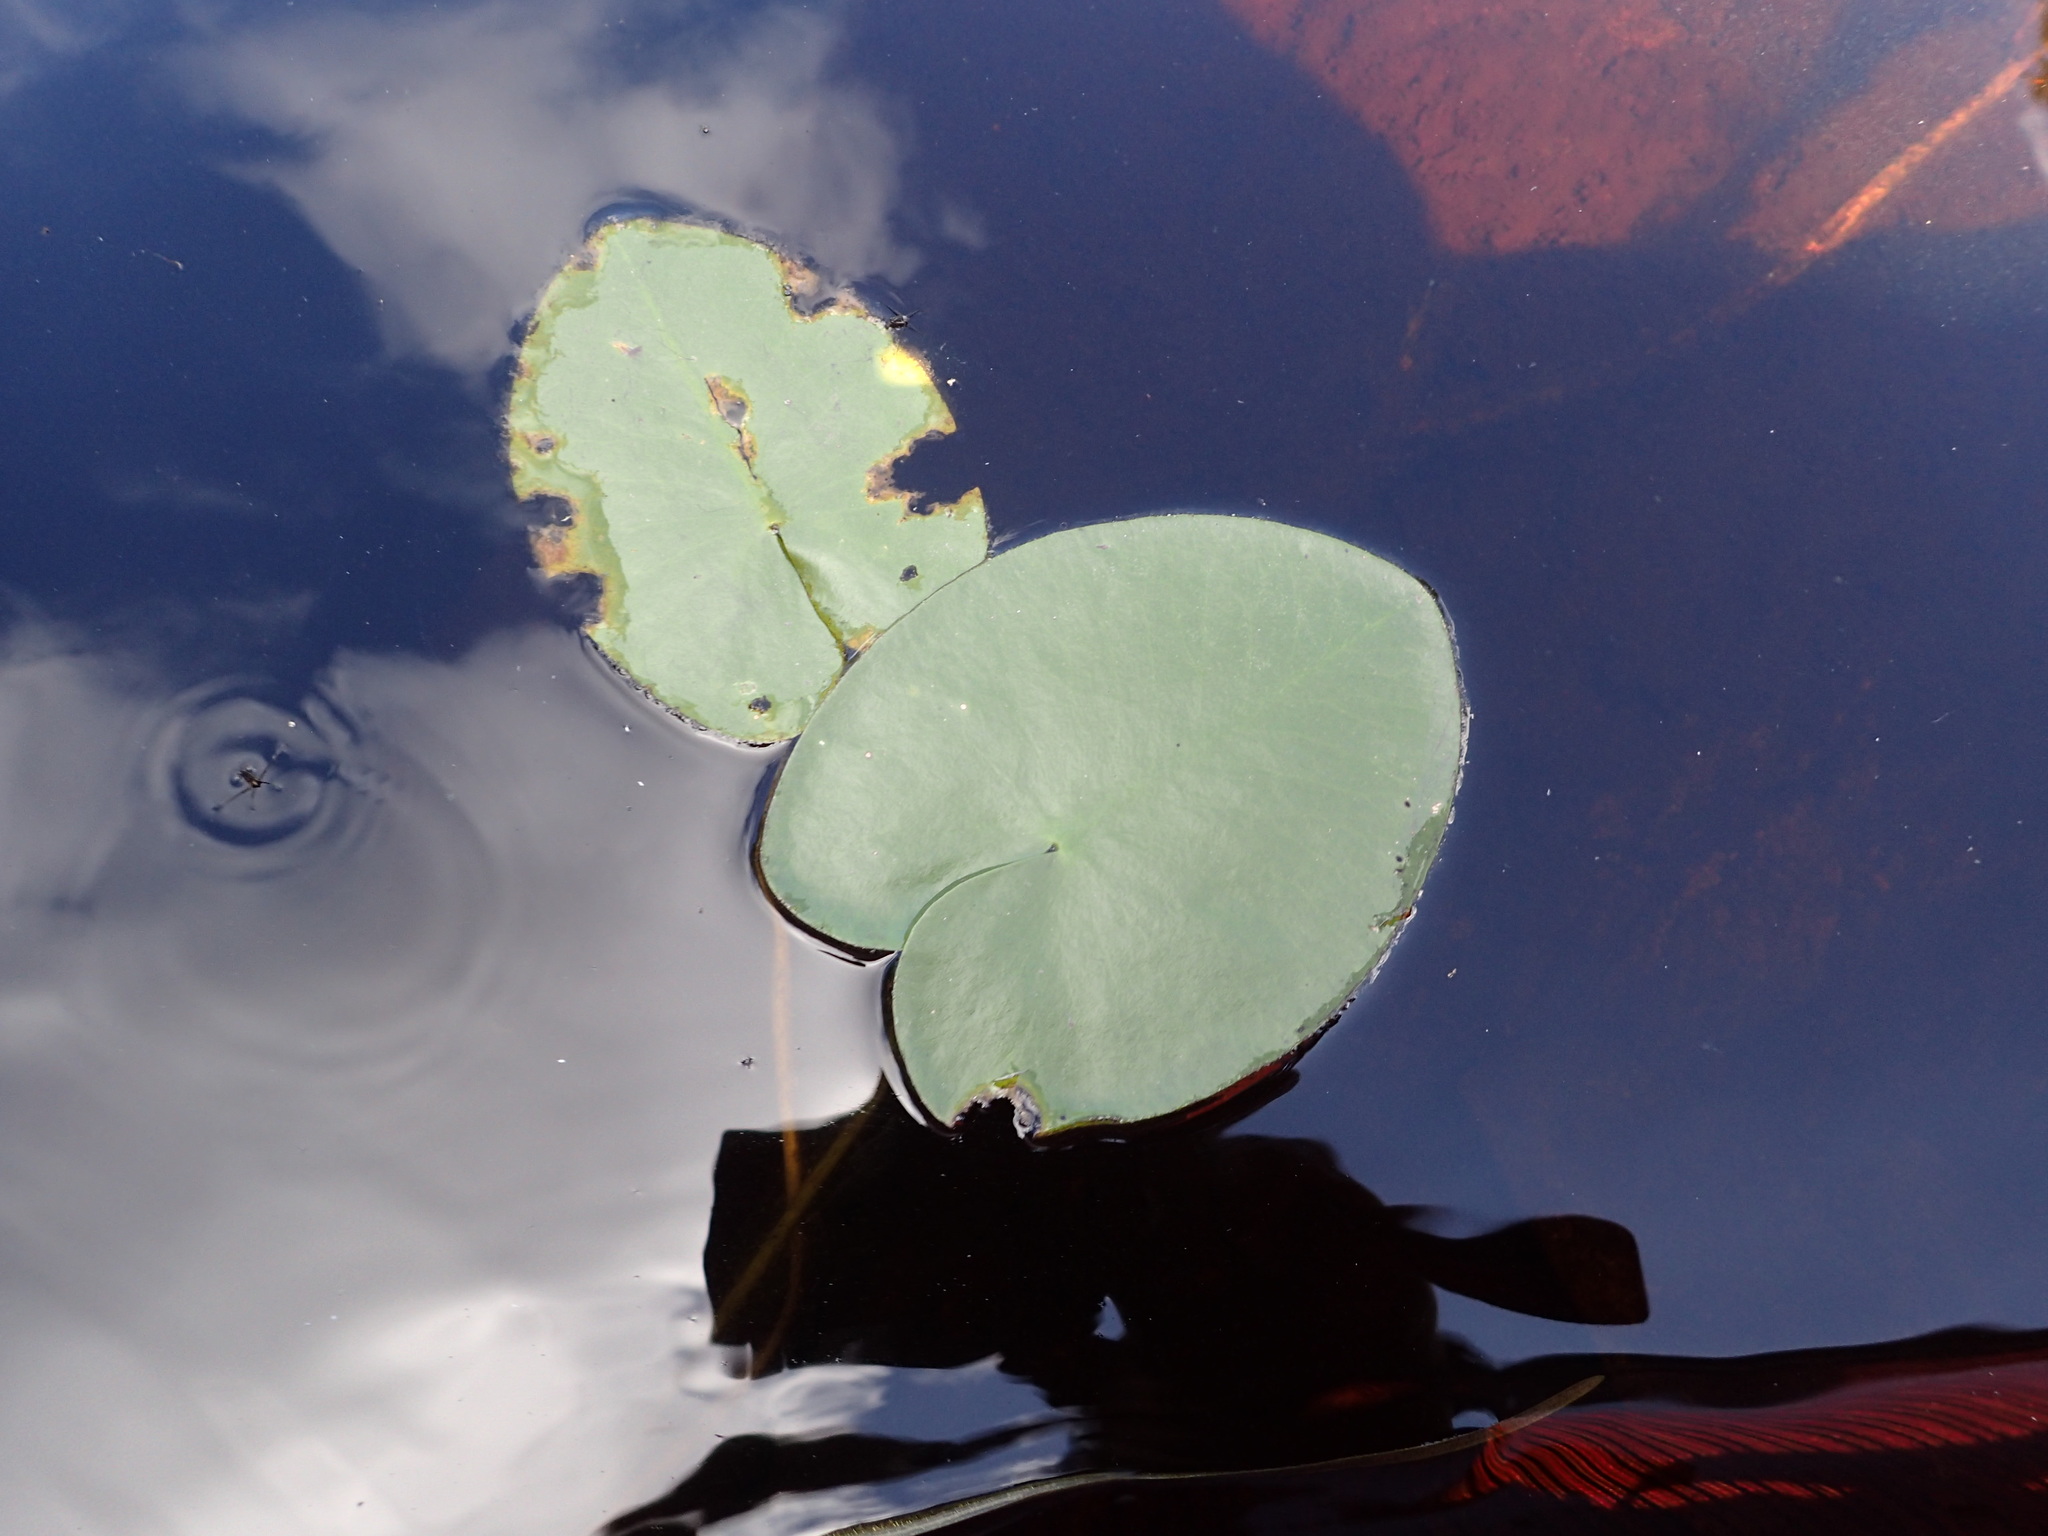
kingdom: Plantae
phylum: Tracheophyta
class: Magnoliopsida
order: Nymphaeales
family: Nymphaeaceae
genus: Nuphar
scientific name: Nuphar rubrodisca
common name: Yellow pond-lily
